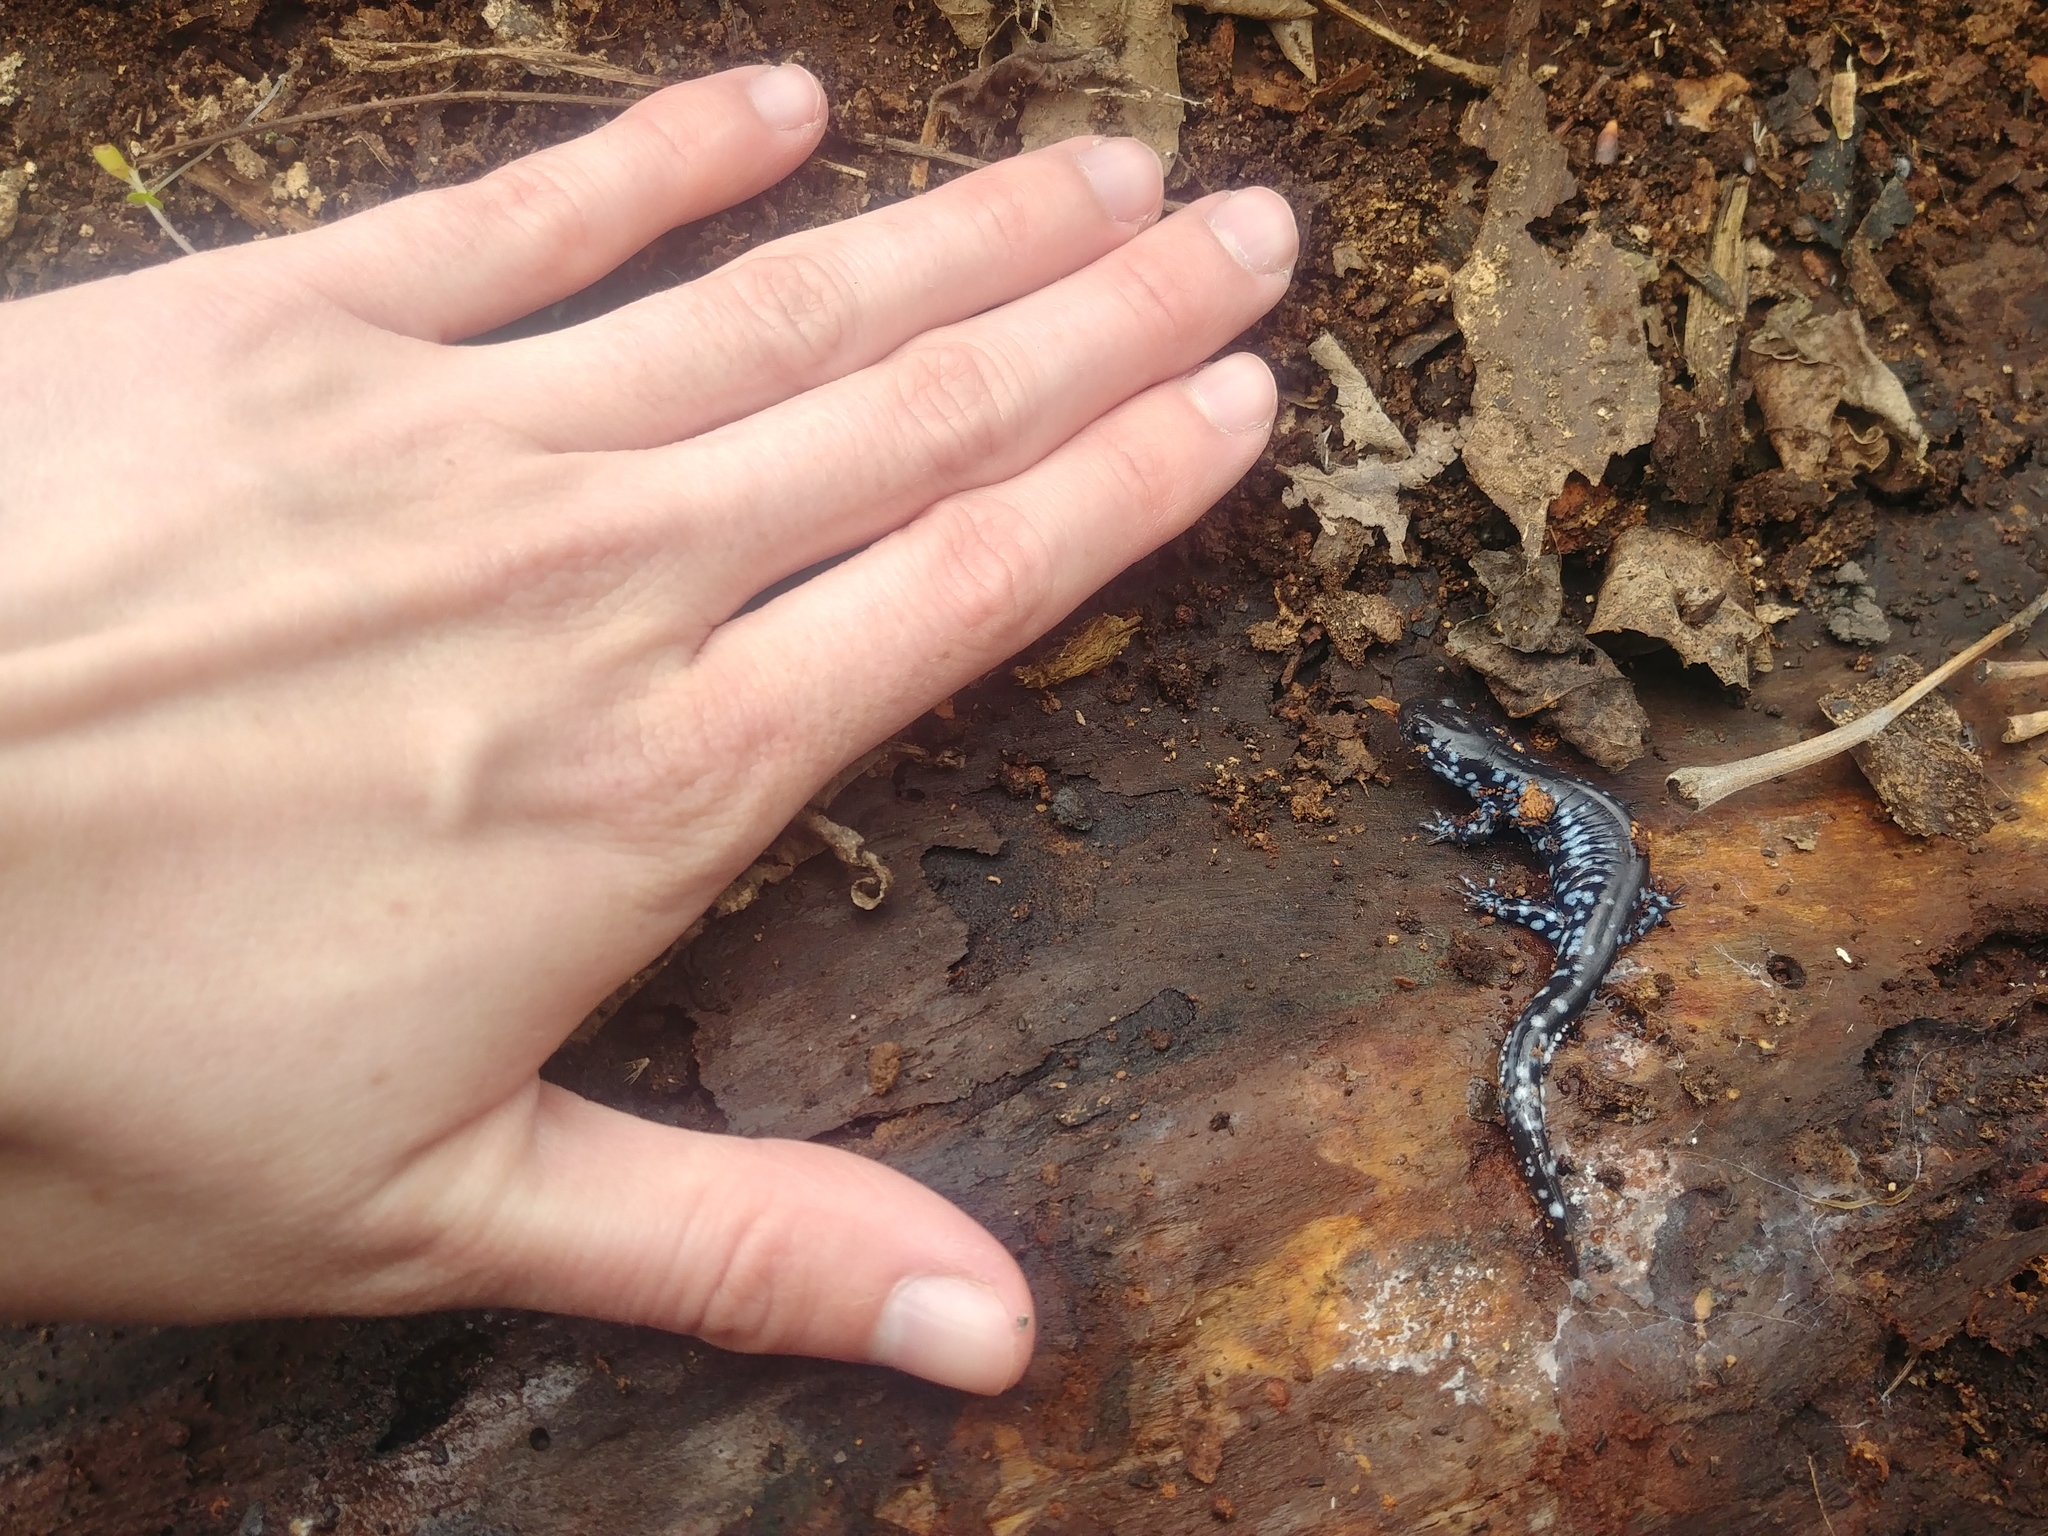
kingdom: Animalia
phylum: Chordata
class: Amphibia
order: Caudata
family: Ambystomatidae
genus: Ambystoma
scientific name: Ambystoma laterale
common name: Blue-spotted salamander
